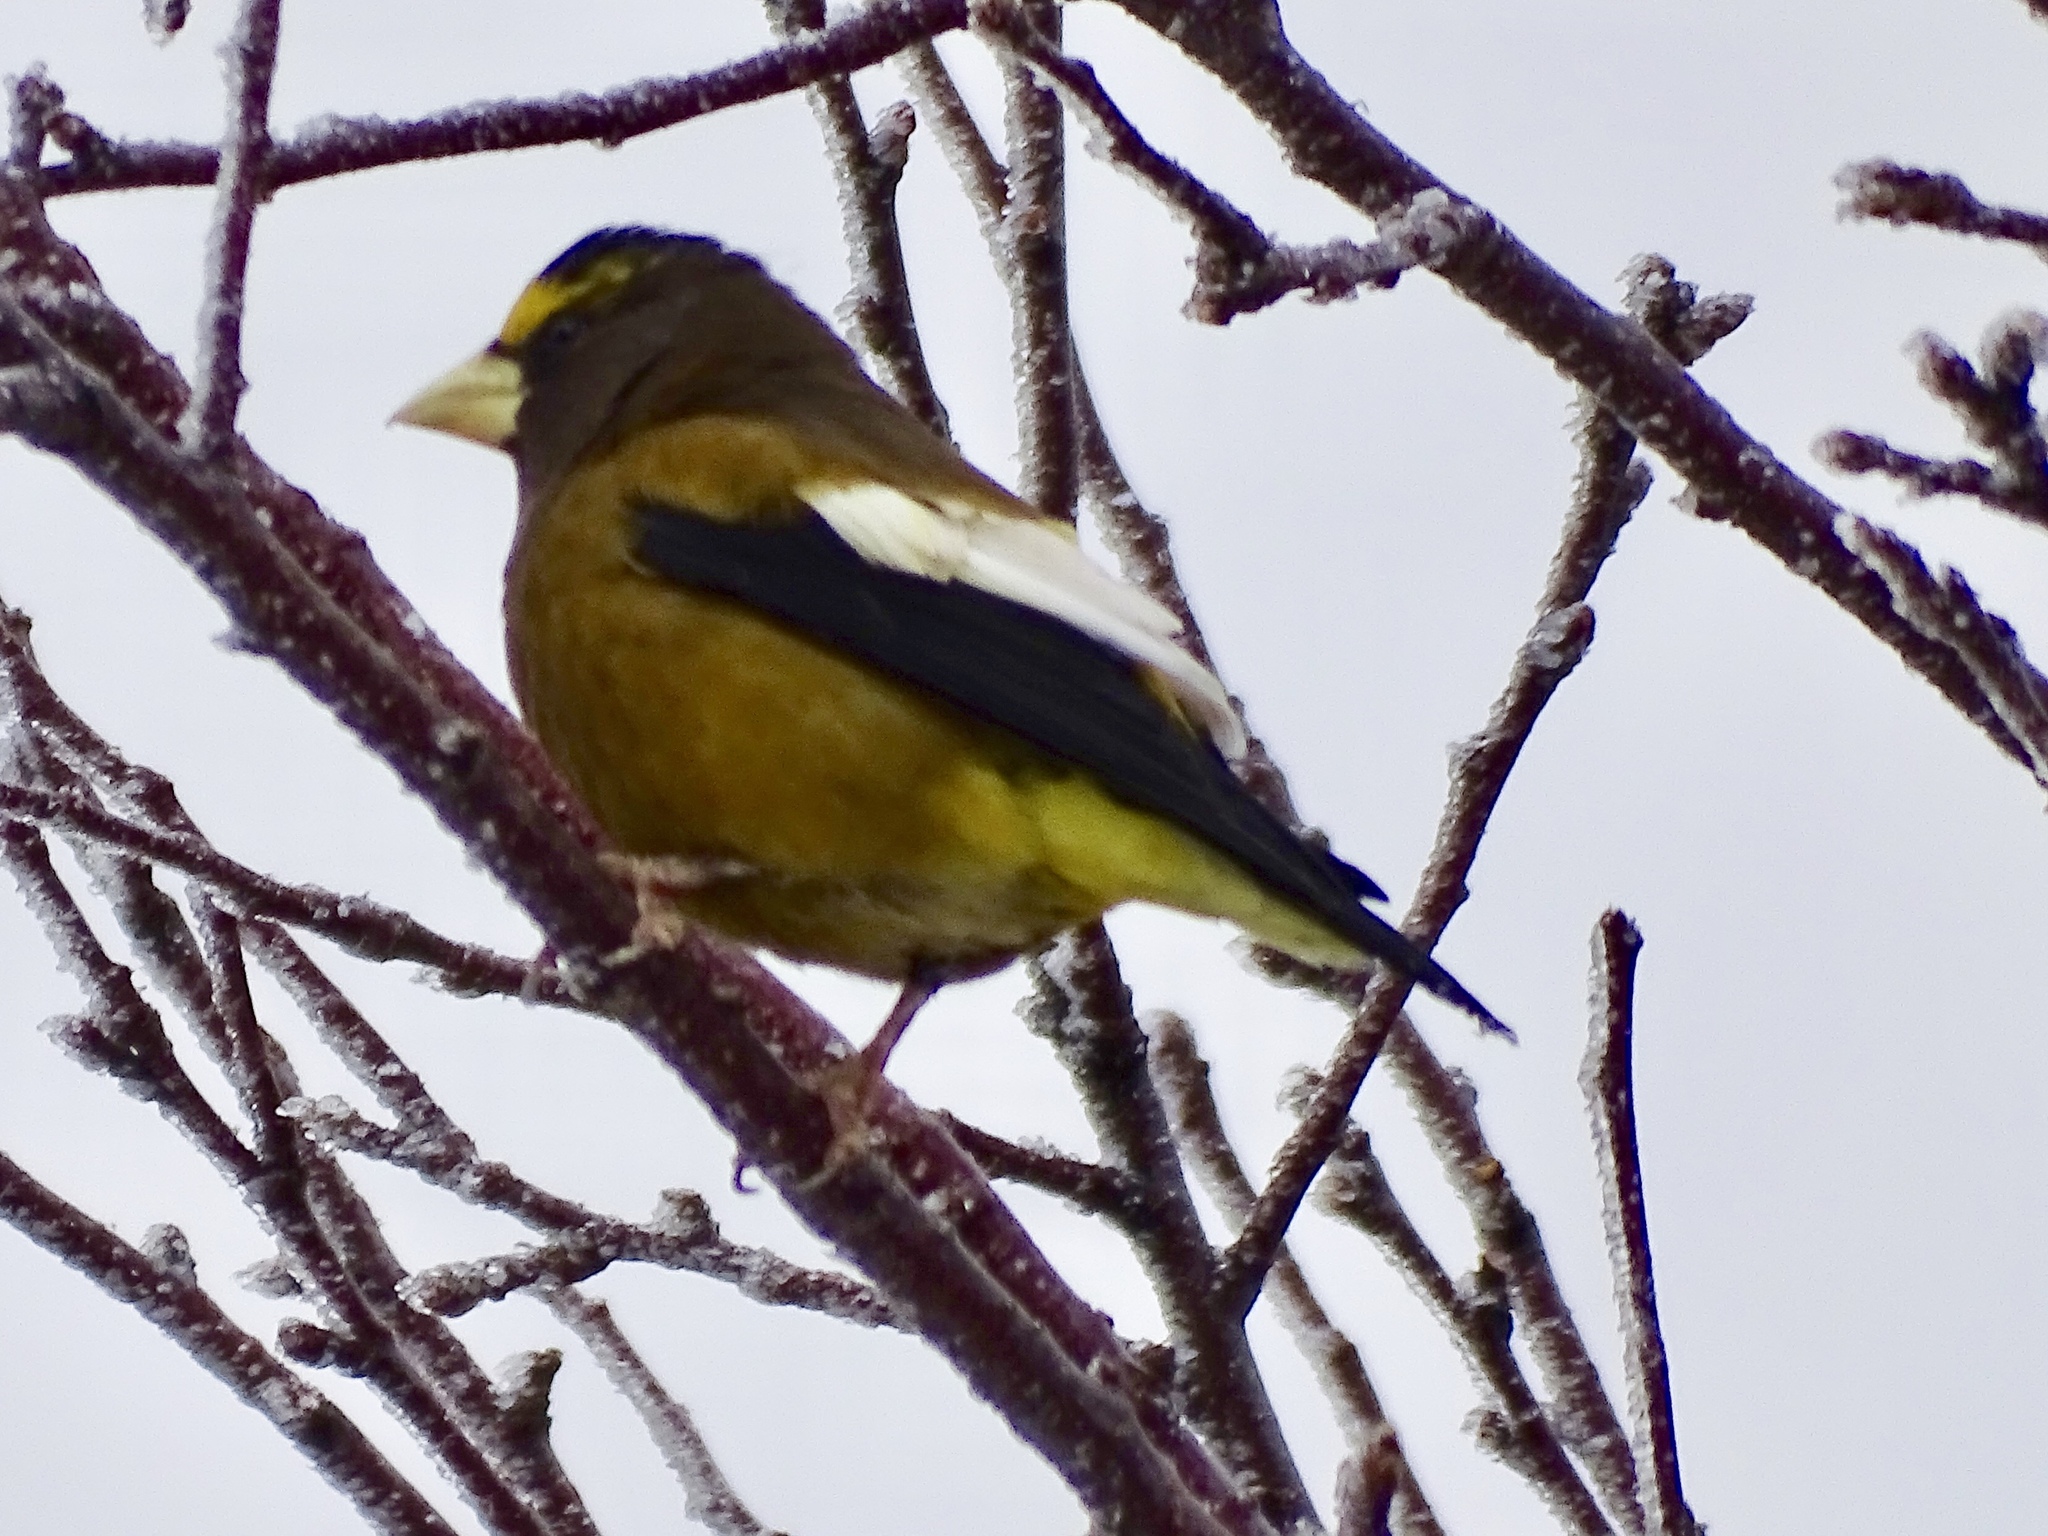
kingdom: Animalia
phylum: Chordata
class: Aves
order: Passeriformes
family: Fringillidae
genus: Hesperiphona
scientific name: Hesperiphona vespertina
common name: Evening grosbeak
